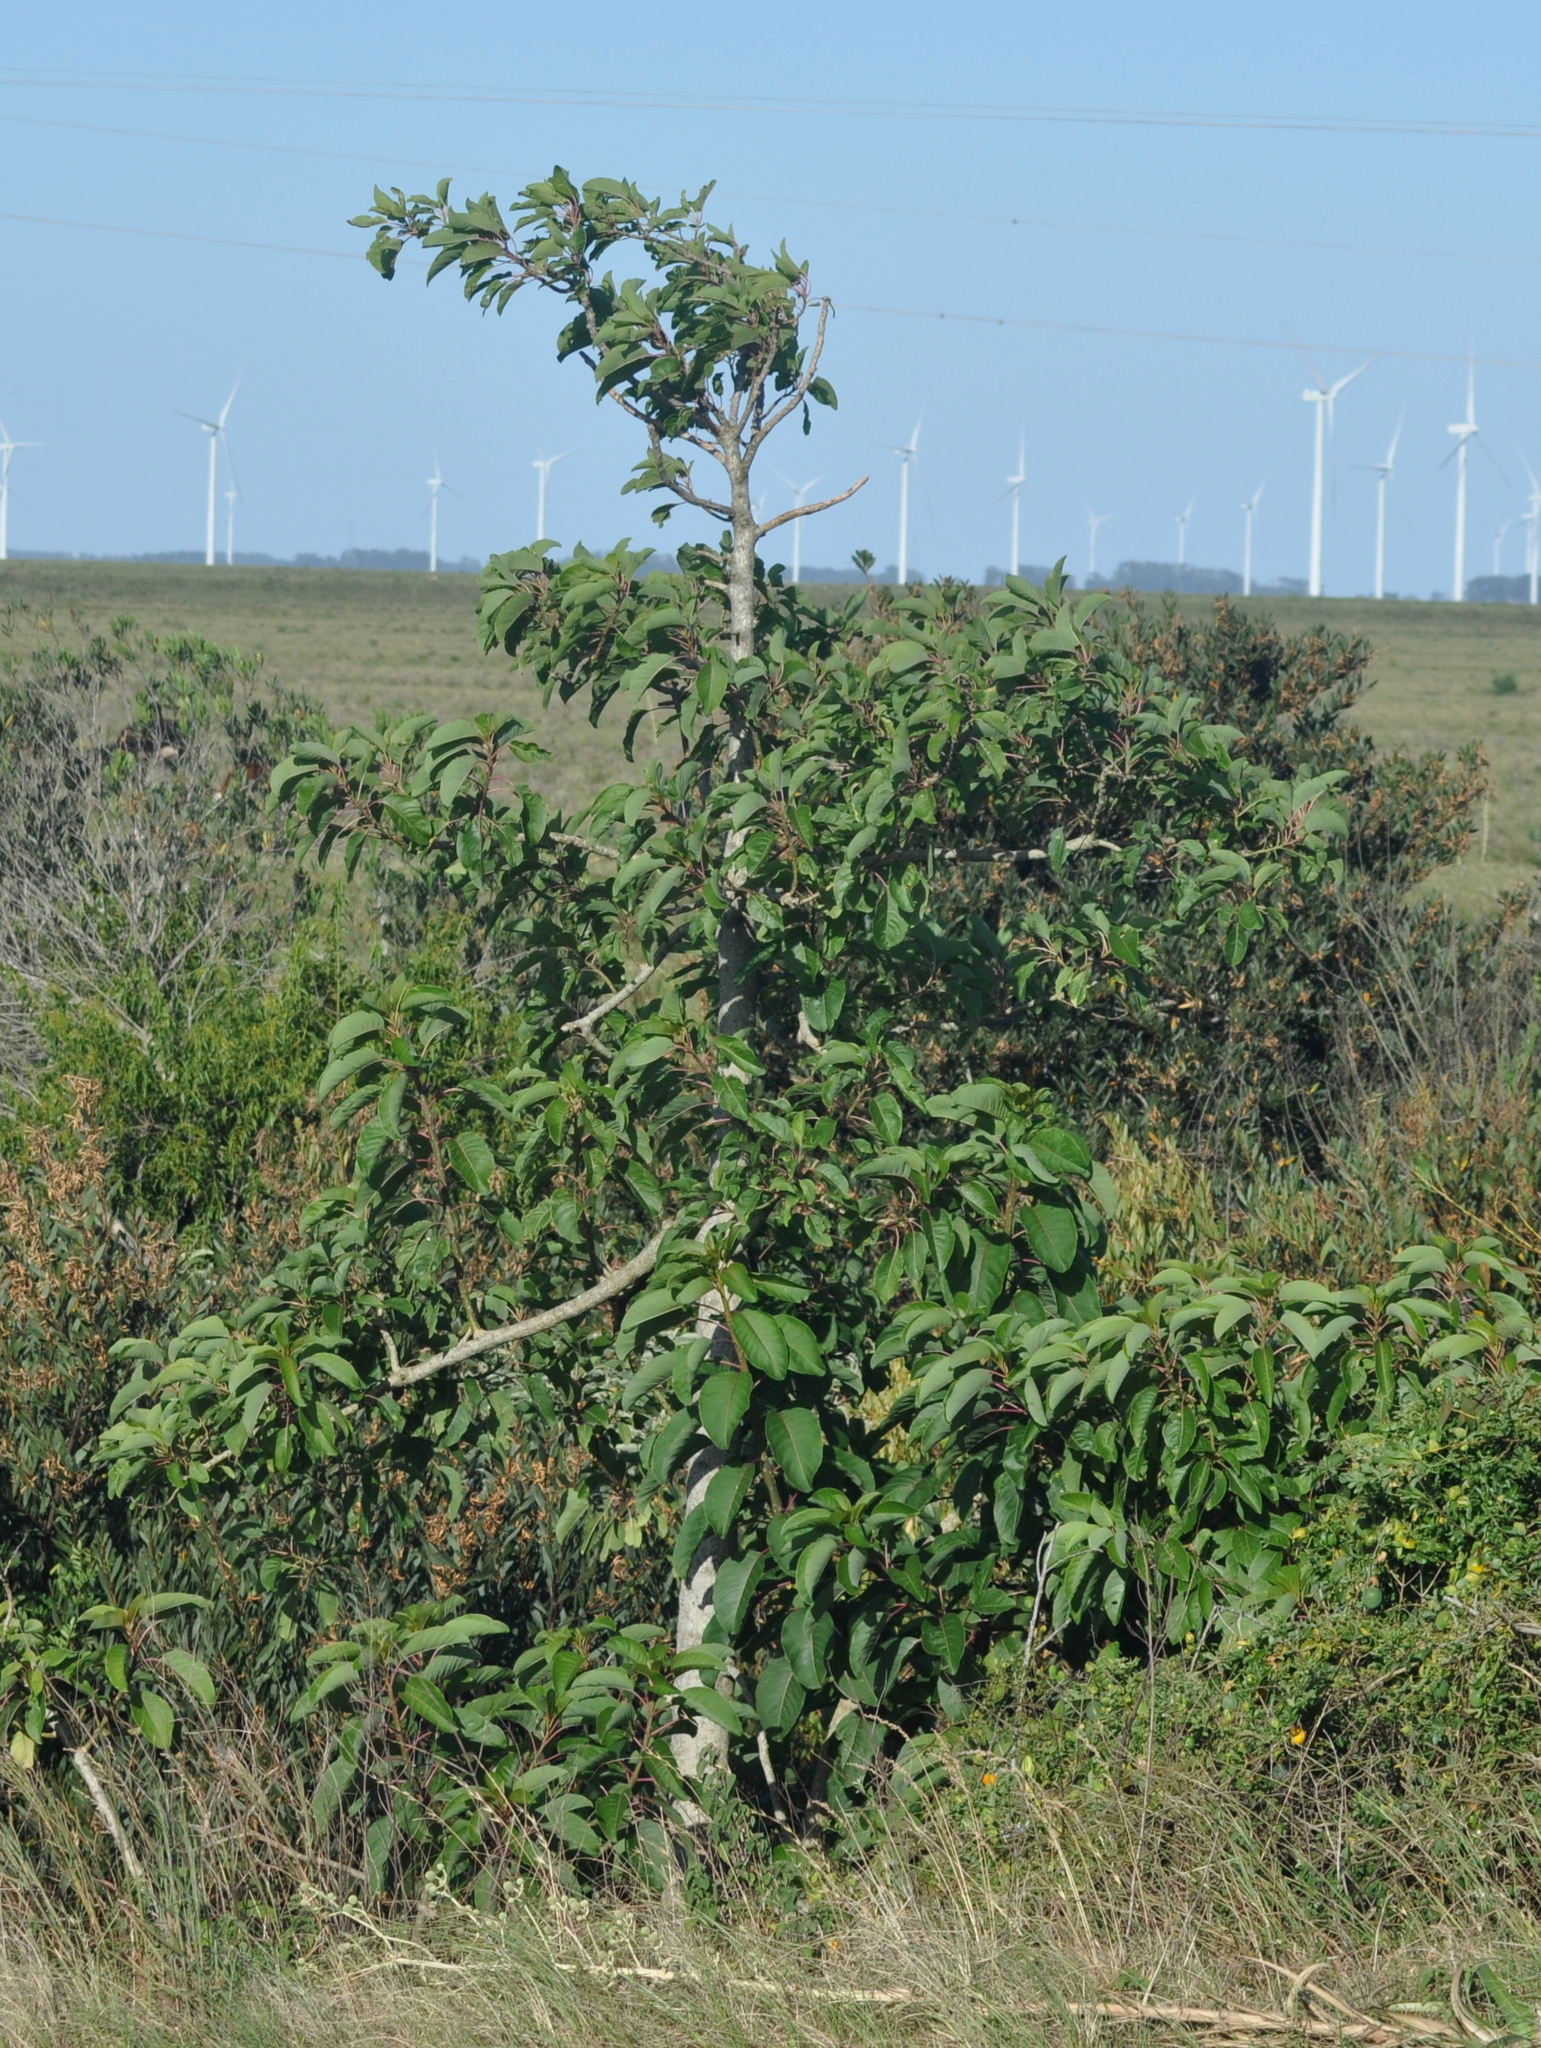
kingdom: Plantae
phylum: Tracheophyta
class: Magnoliopsida
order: Caryophyllales
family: Phytolaccaceae
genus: Phytolacca
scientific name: Phytolacca dioica
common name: Pokeweed
